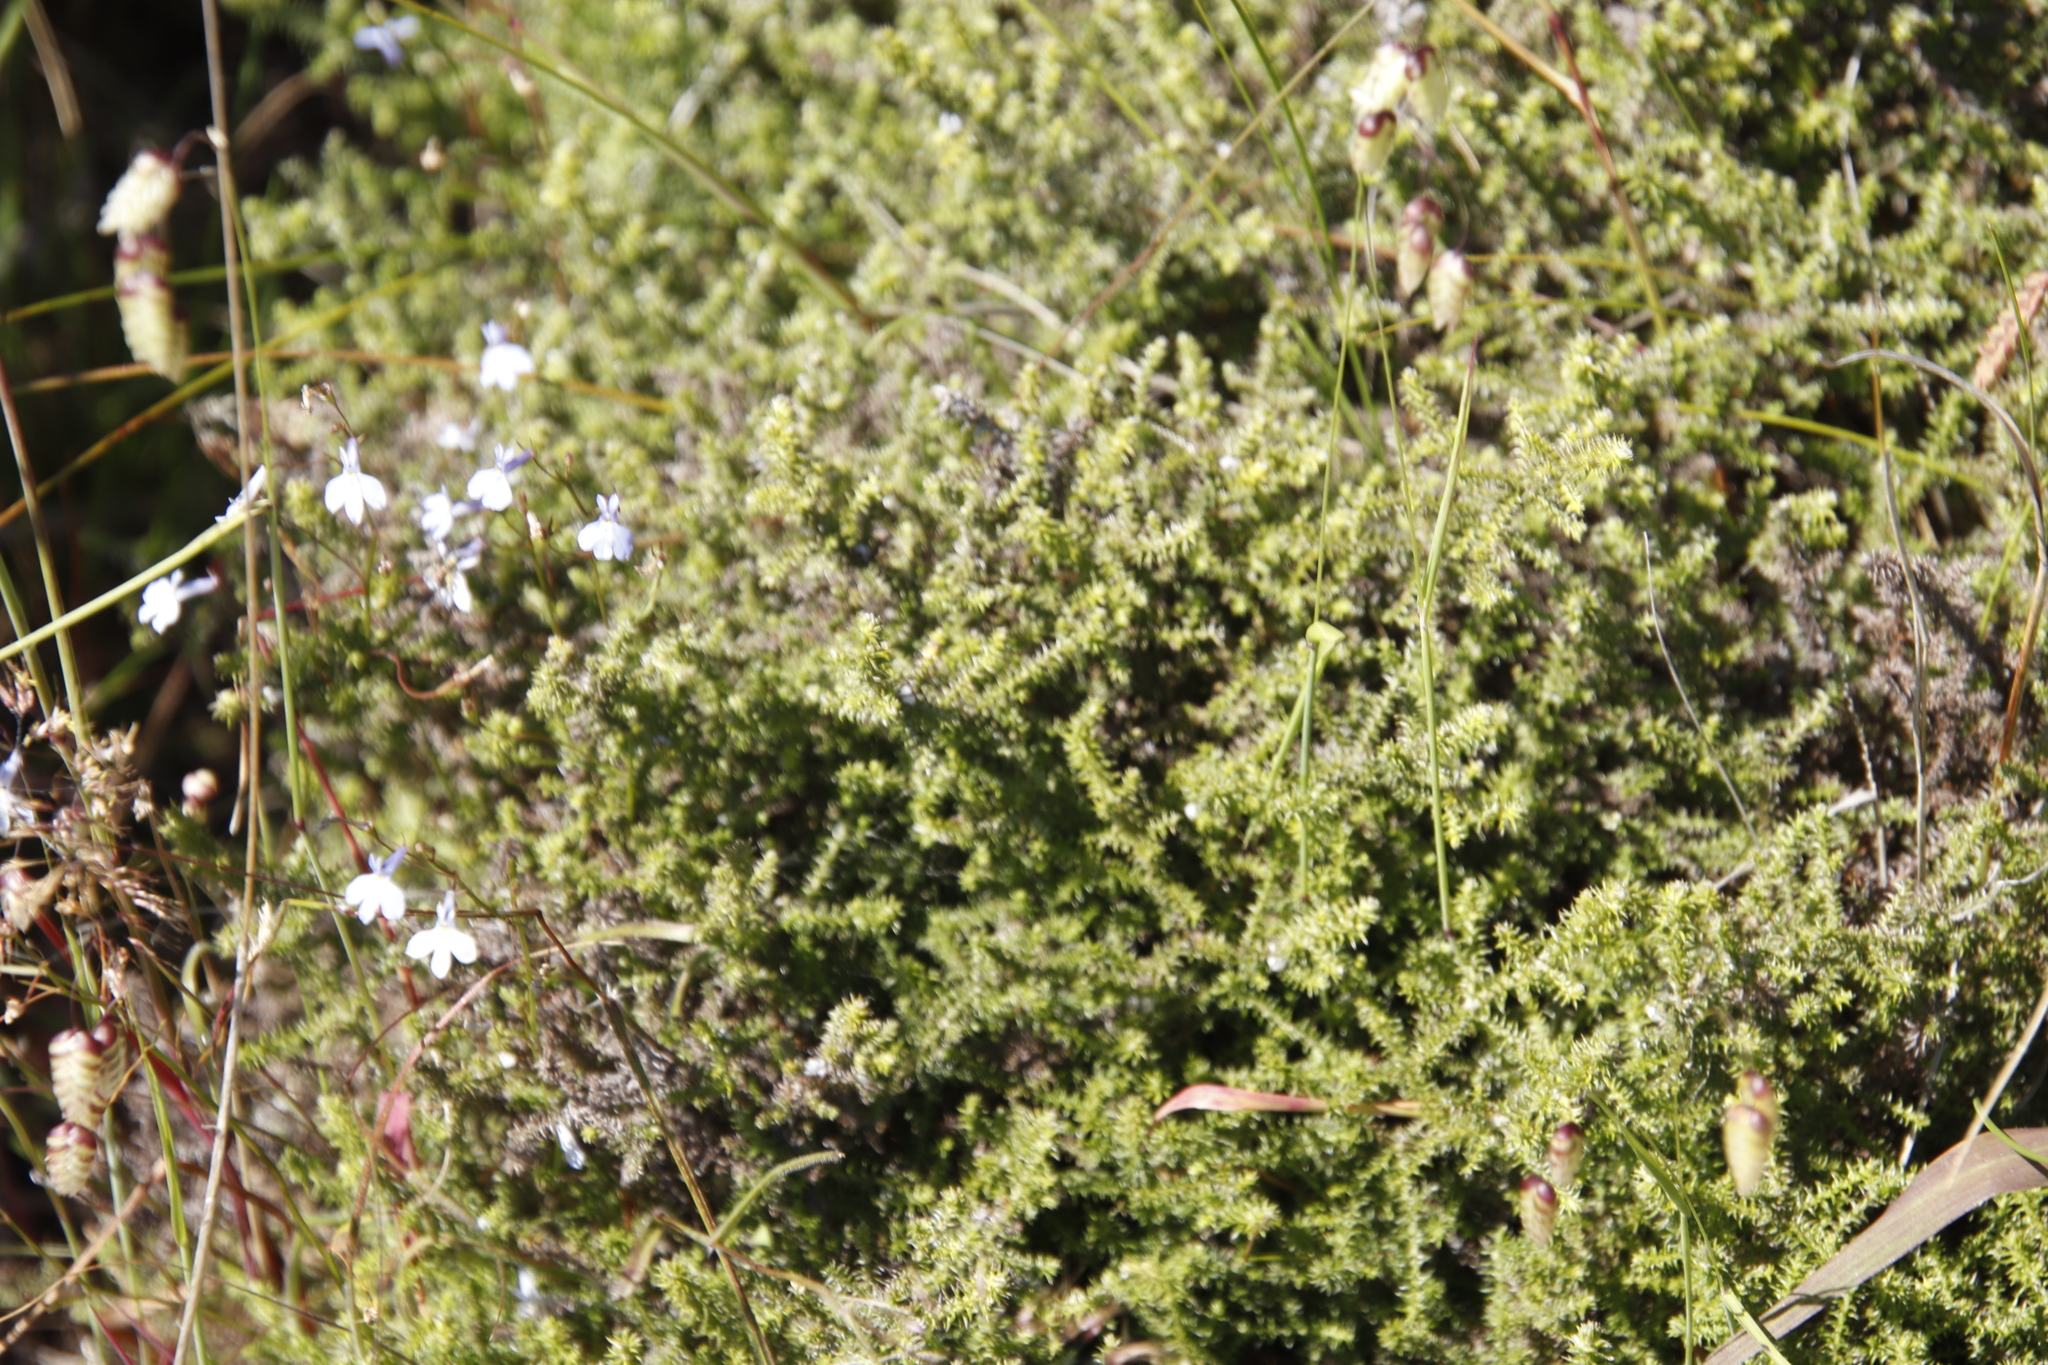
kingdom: Plantae
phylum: Tracheophyta
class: Magnoliopsida
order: Asterales
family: Asteraceae
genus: Seriphium
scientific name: Seriphium cinereum
